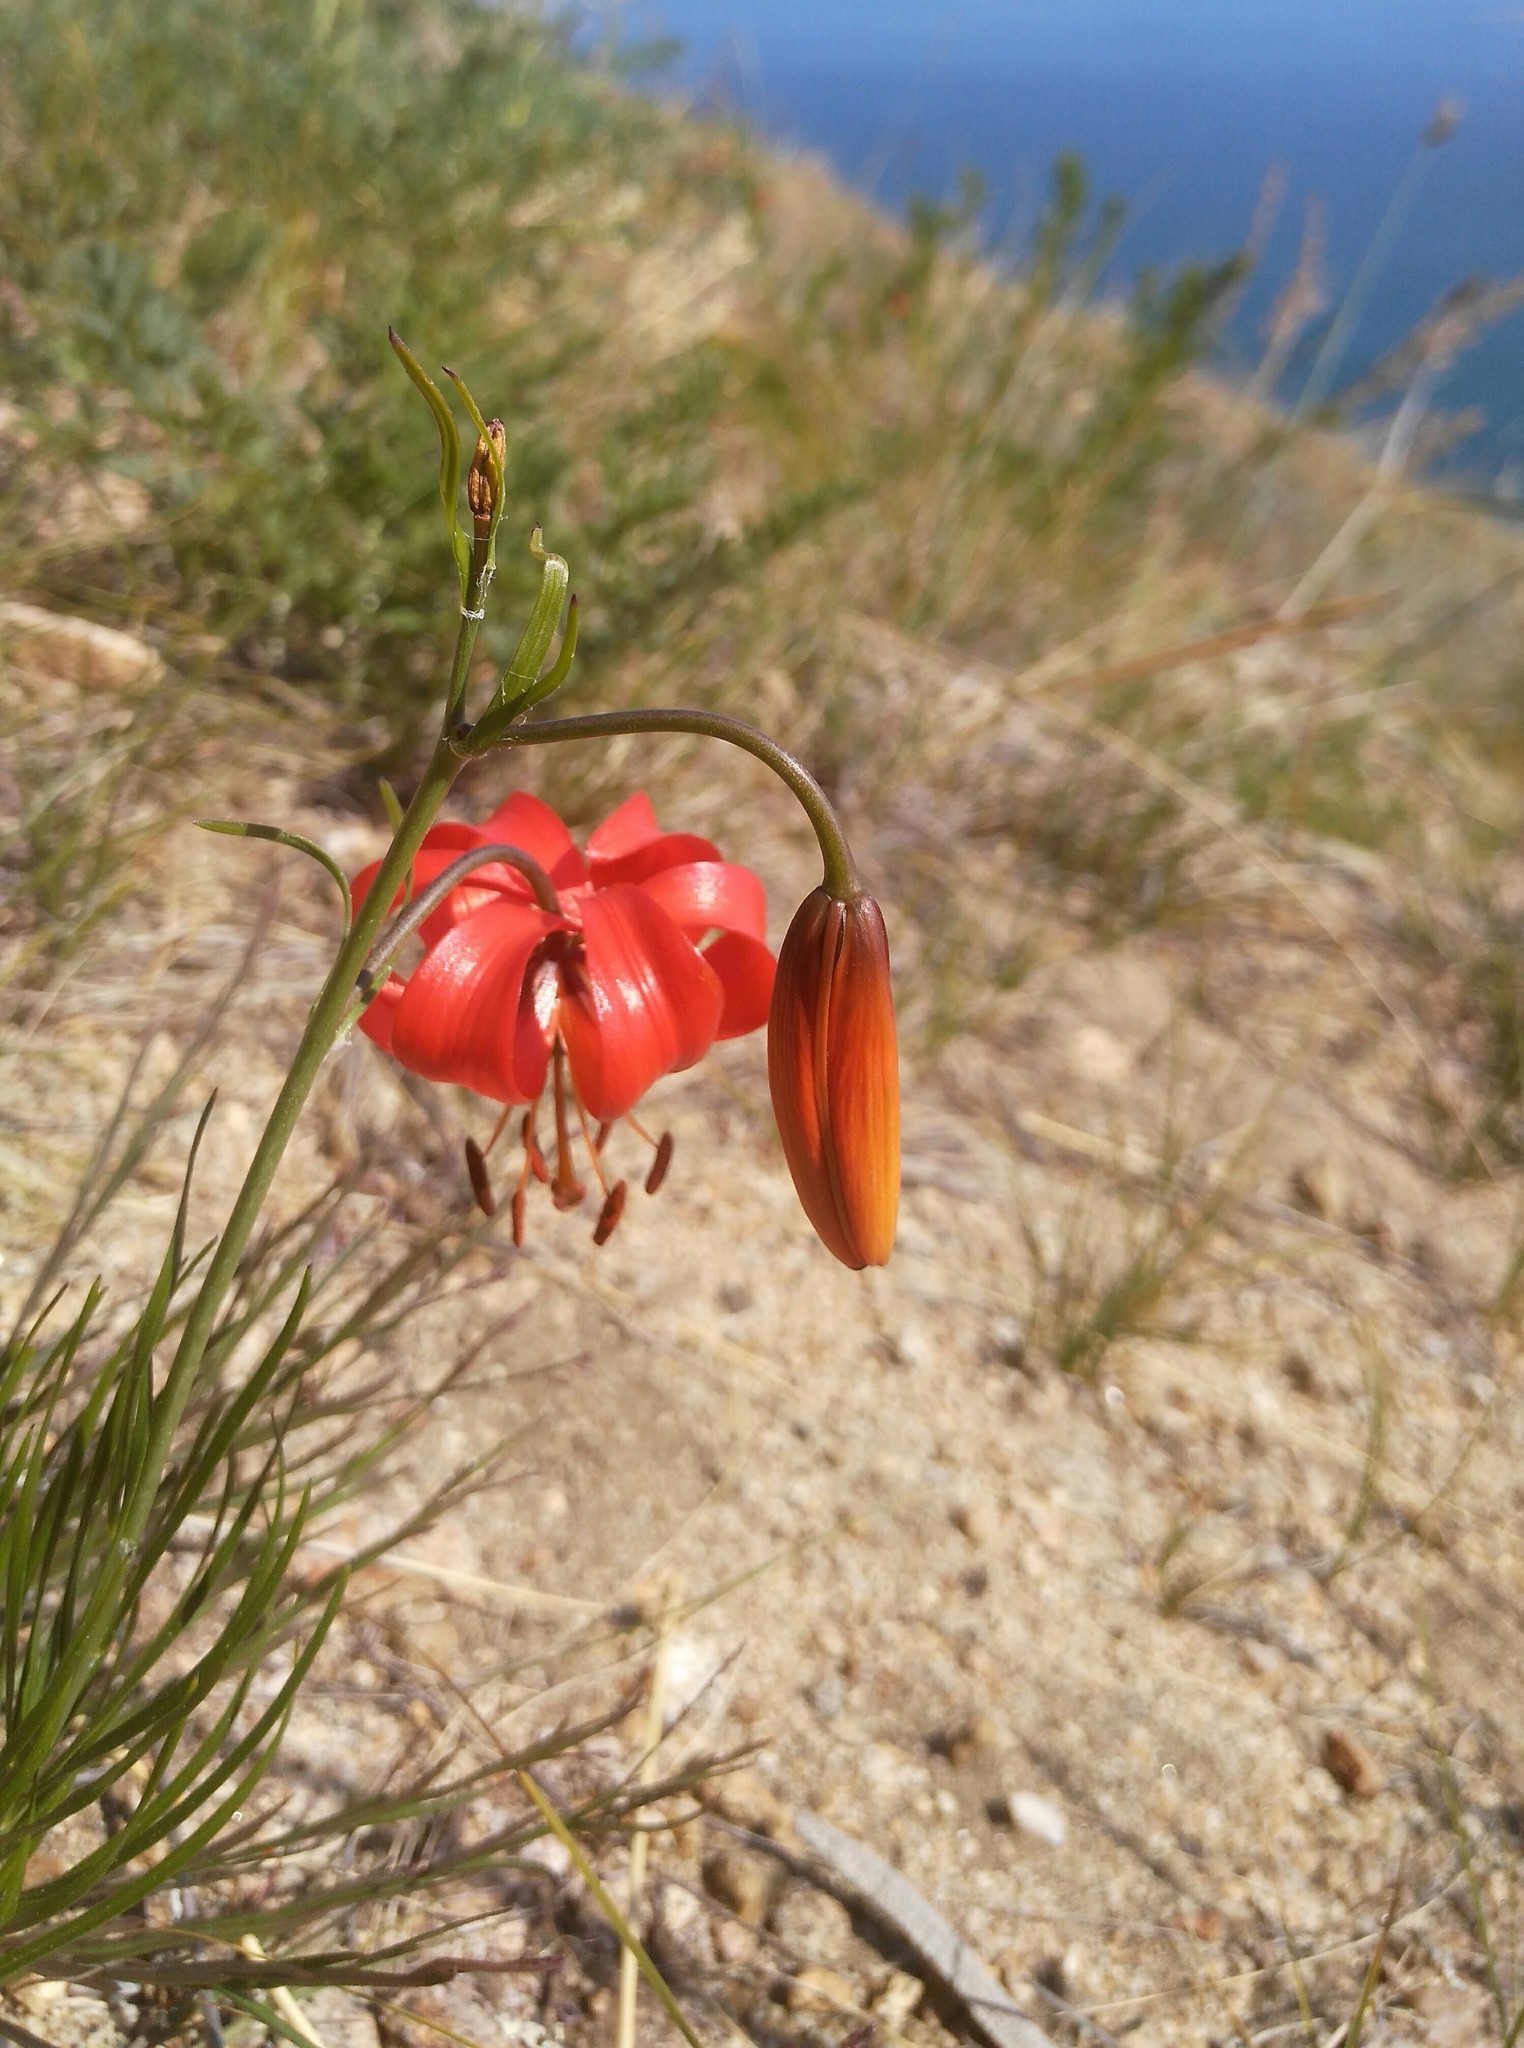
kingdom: Plantae
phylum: Tracheophyta
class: Liliopsida
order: Liliales
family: Liliaceae
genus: Lilium
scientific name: Lilium pumilum
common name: Coral lily
